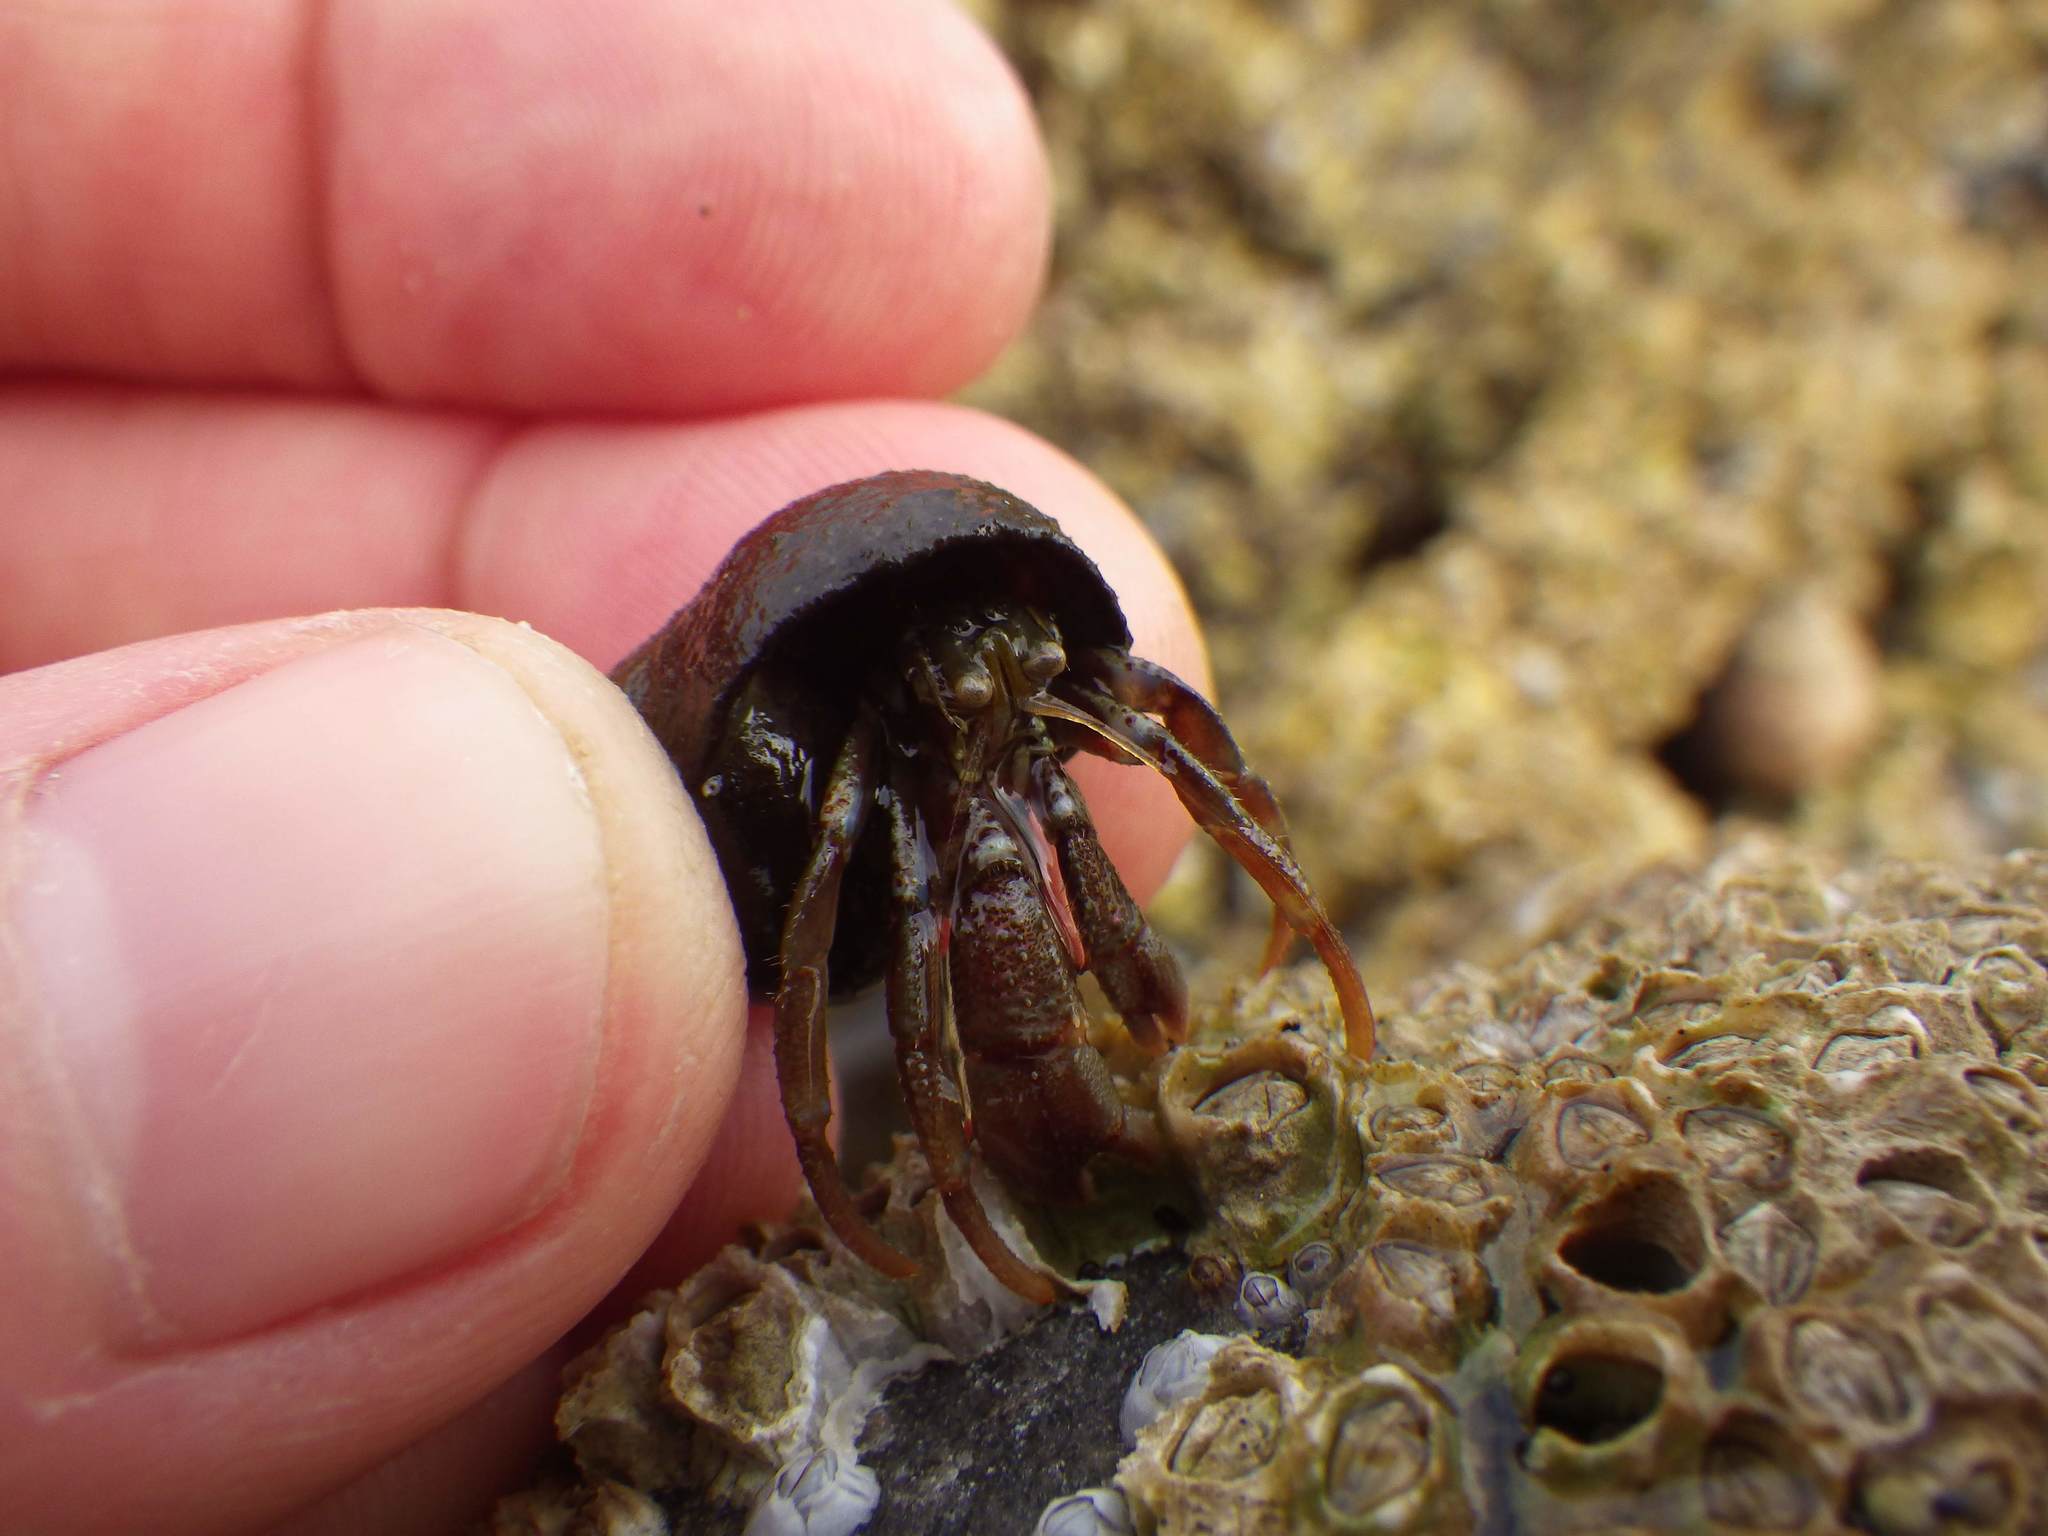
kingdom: Animalia
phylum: Arthropoda
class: Malacostraca
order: Decapoda
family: Paguridae
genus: Pagurus
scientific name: Pagurus bernhardus
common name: Hermit crab
